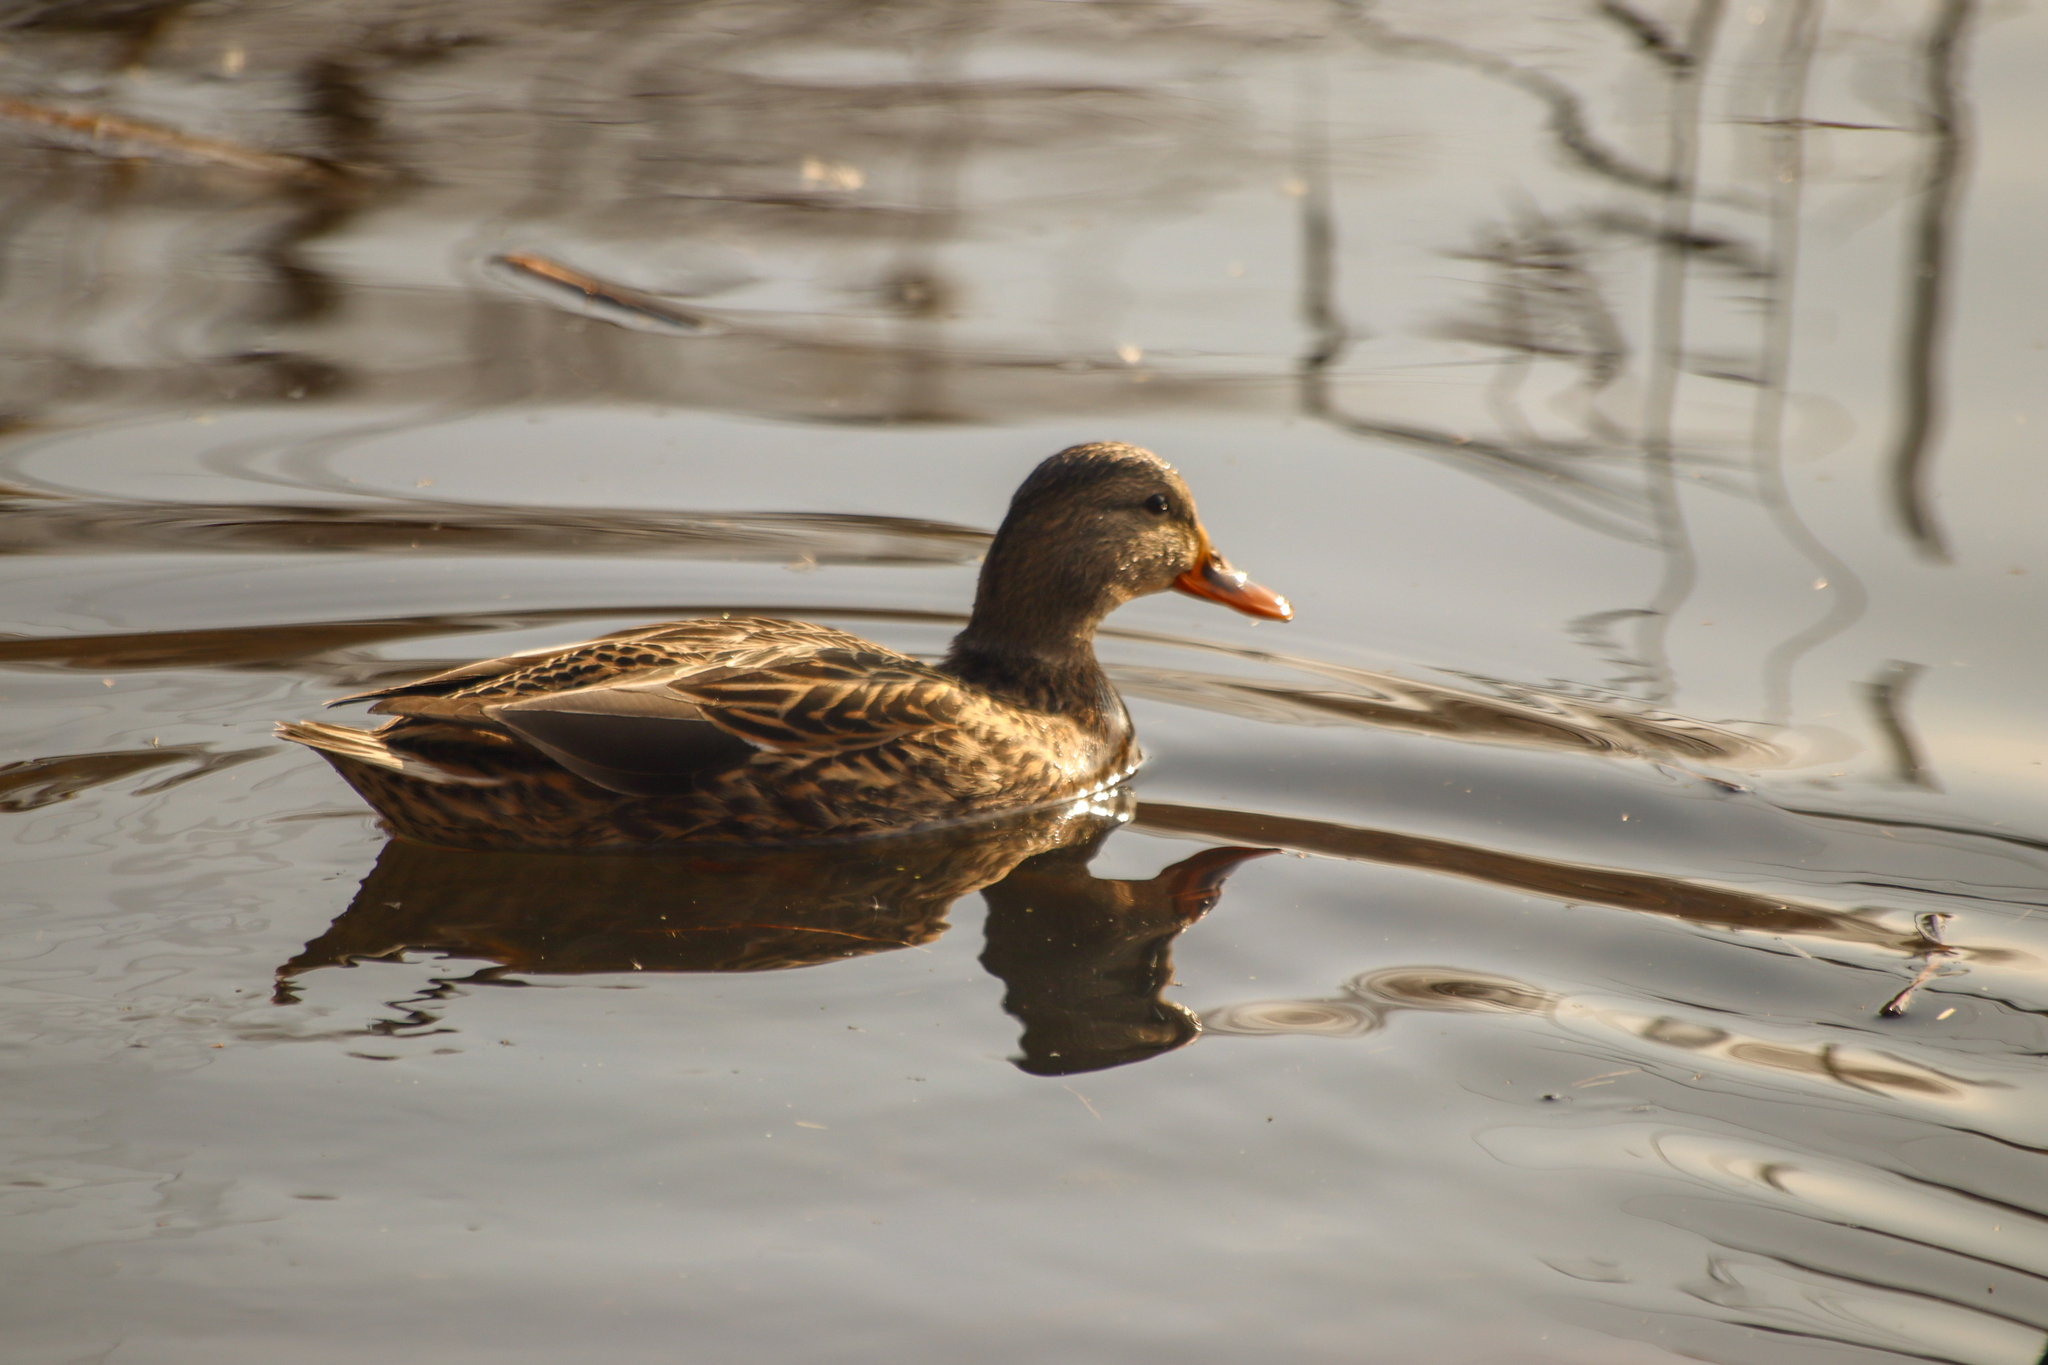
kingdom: Animalia
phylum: Chordata
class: Aves
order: Anseriformes
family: Anatidae
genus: Anas
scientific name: Anas platyrhynchos
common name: Mallard
